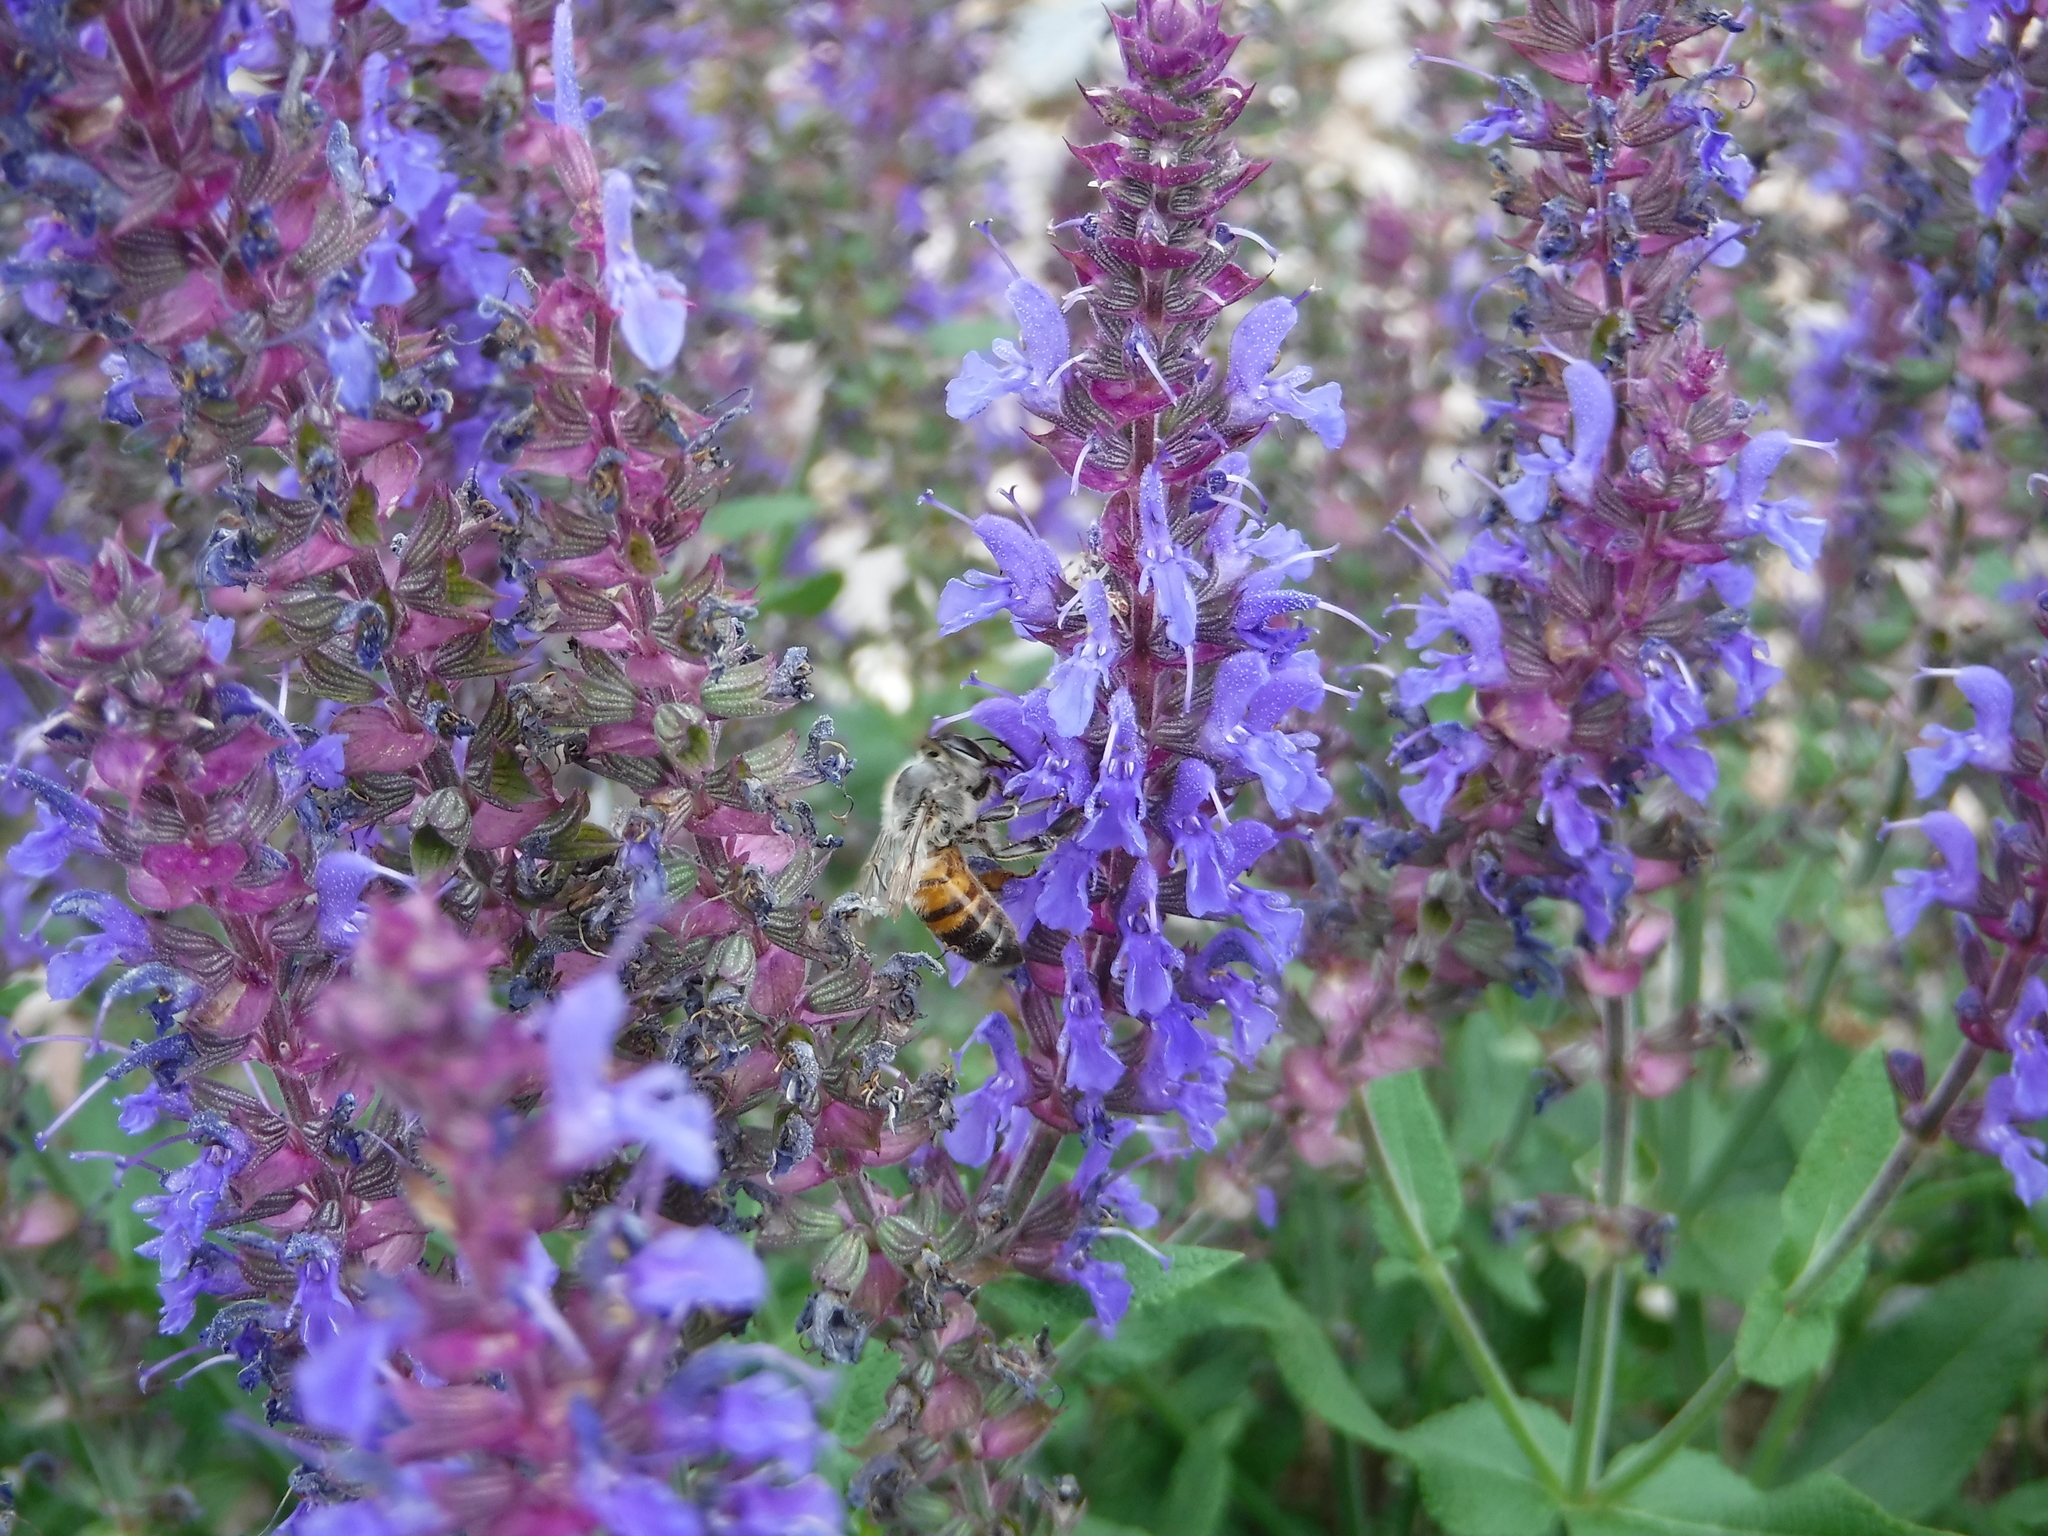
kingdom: Animalia
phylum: Arthropoda
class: Insecta
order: Hymenoptera
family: Apidae
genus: Apis
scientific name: Apis mellifera
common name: Honey bee
